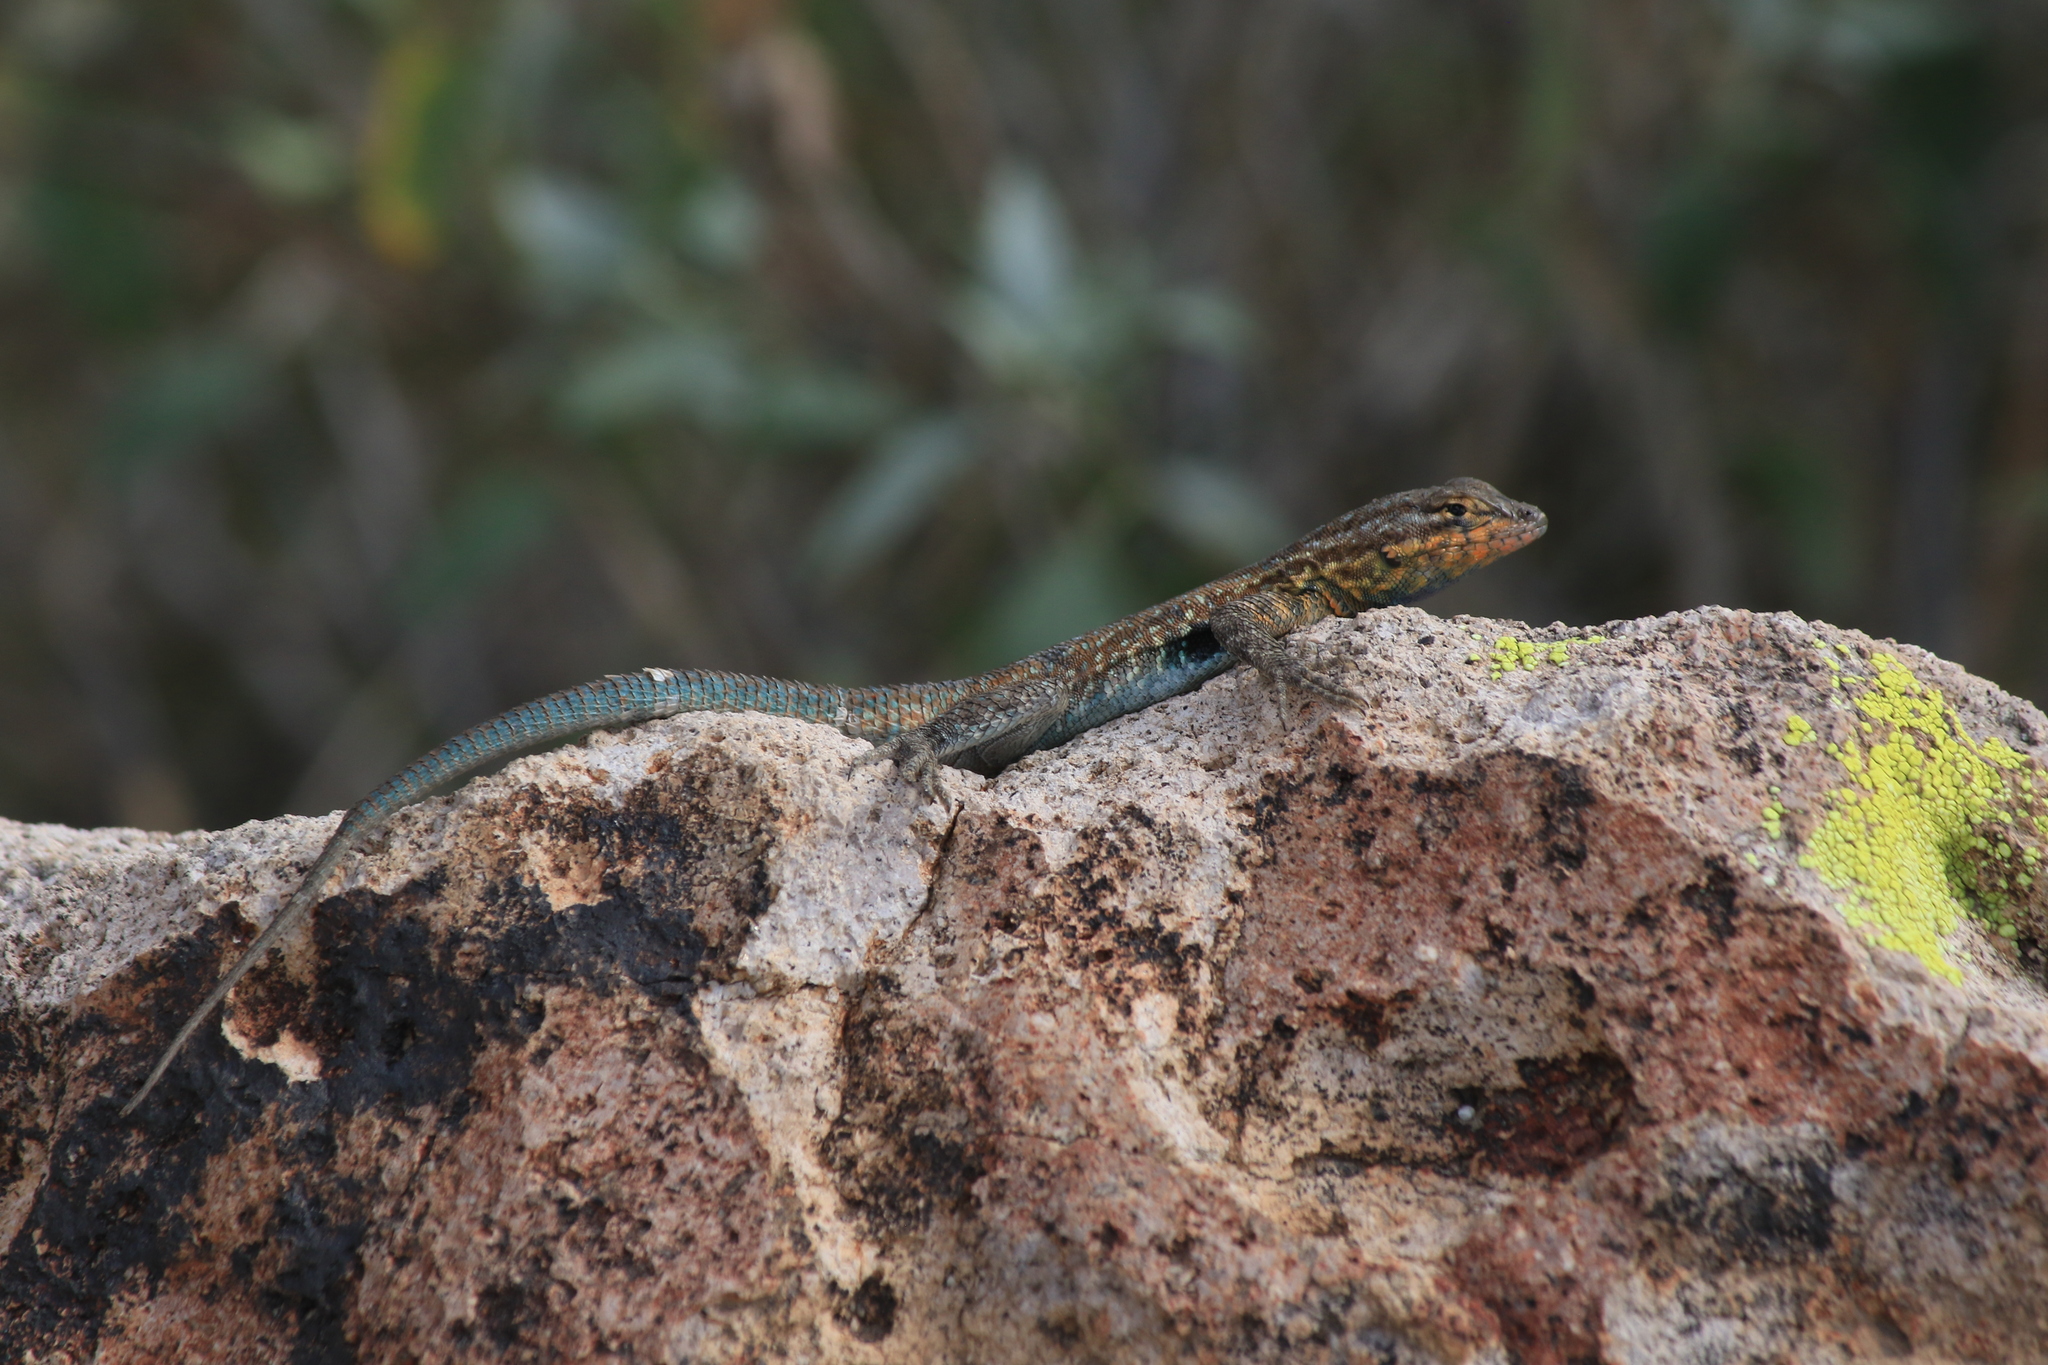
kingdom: Animalia
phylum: Chordata
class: Squamata
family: Phrynosomatidae
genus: Uta
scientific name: Uta stansburiana
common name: Side-blotched lizard
